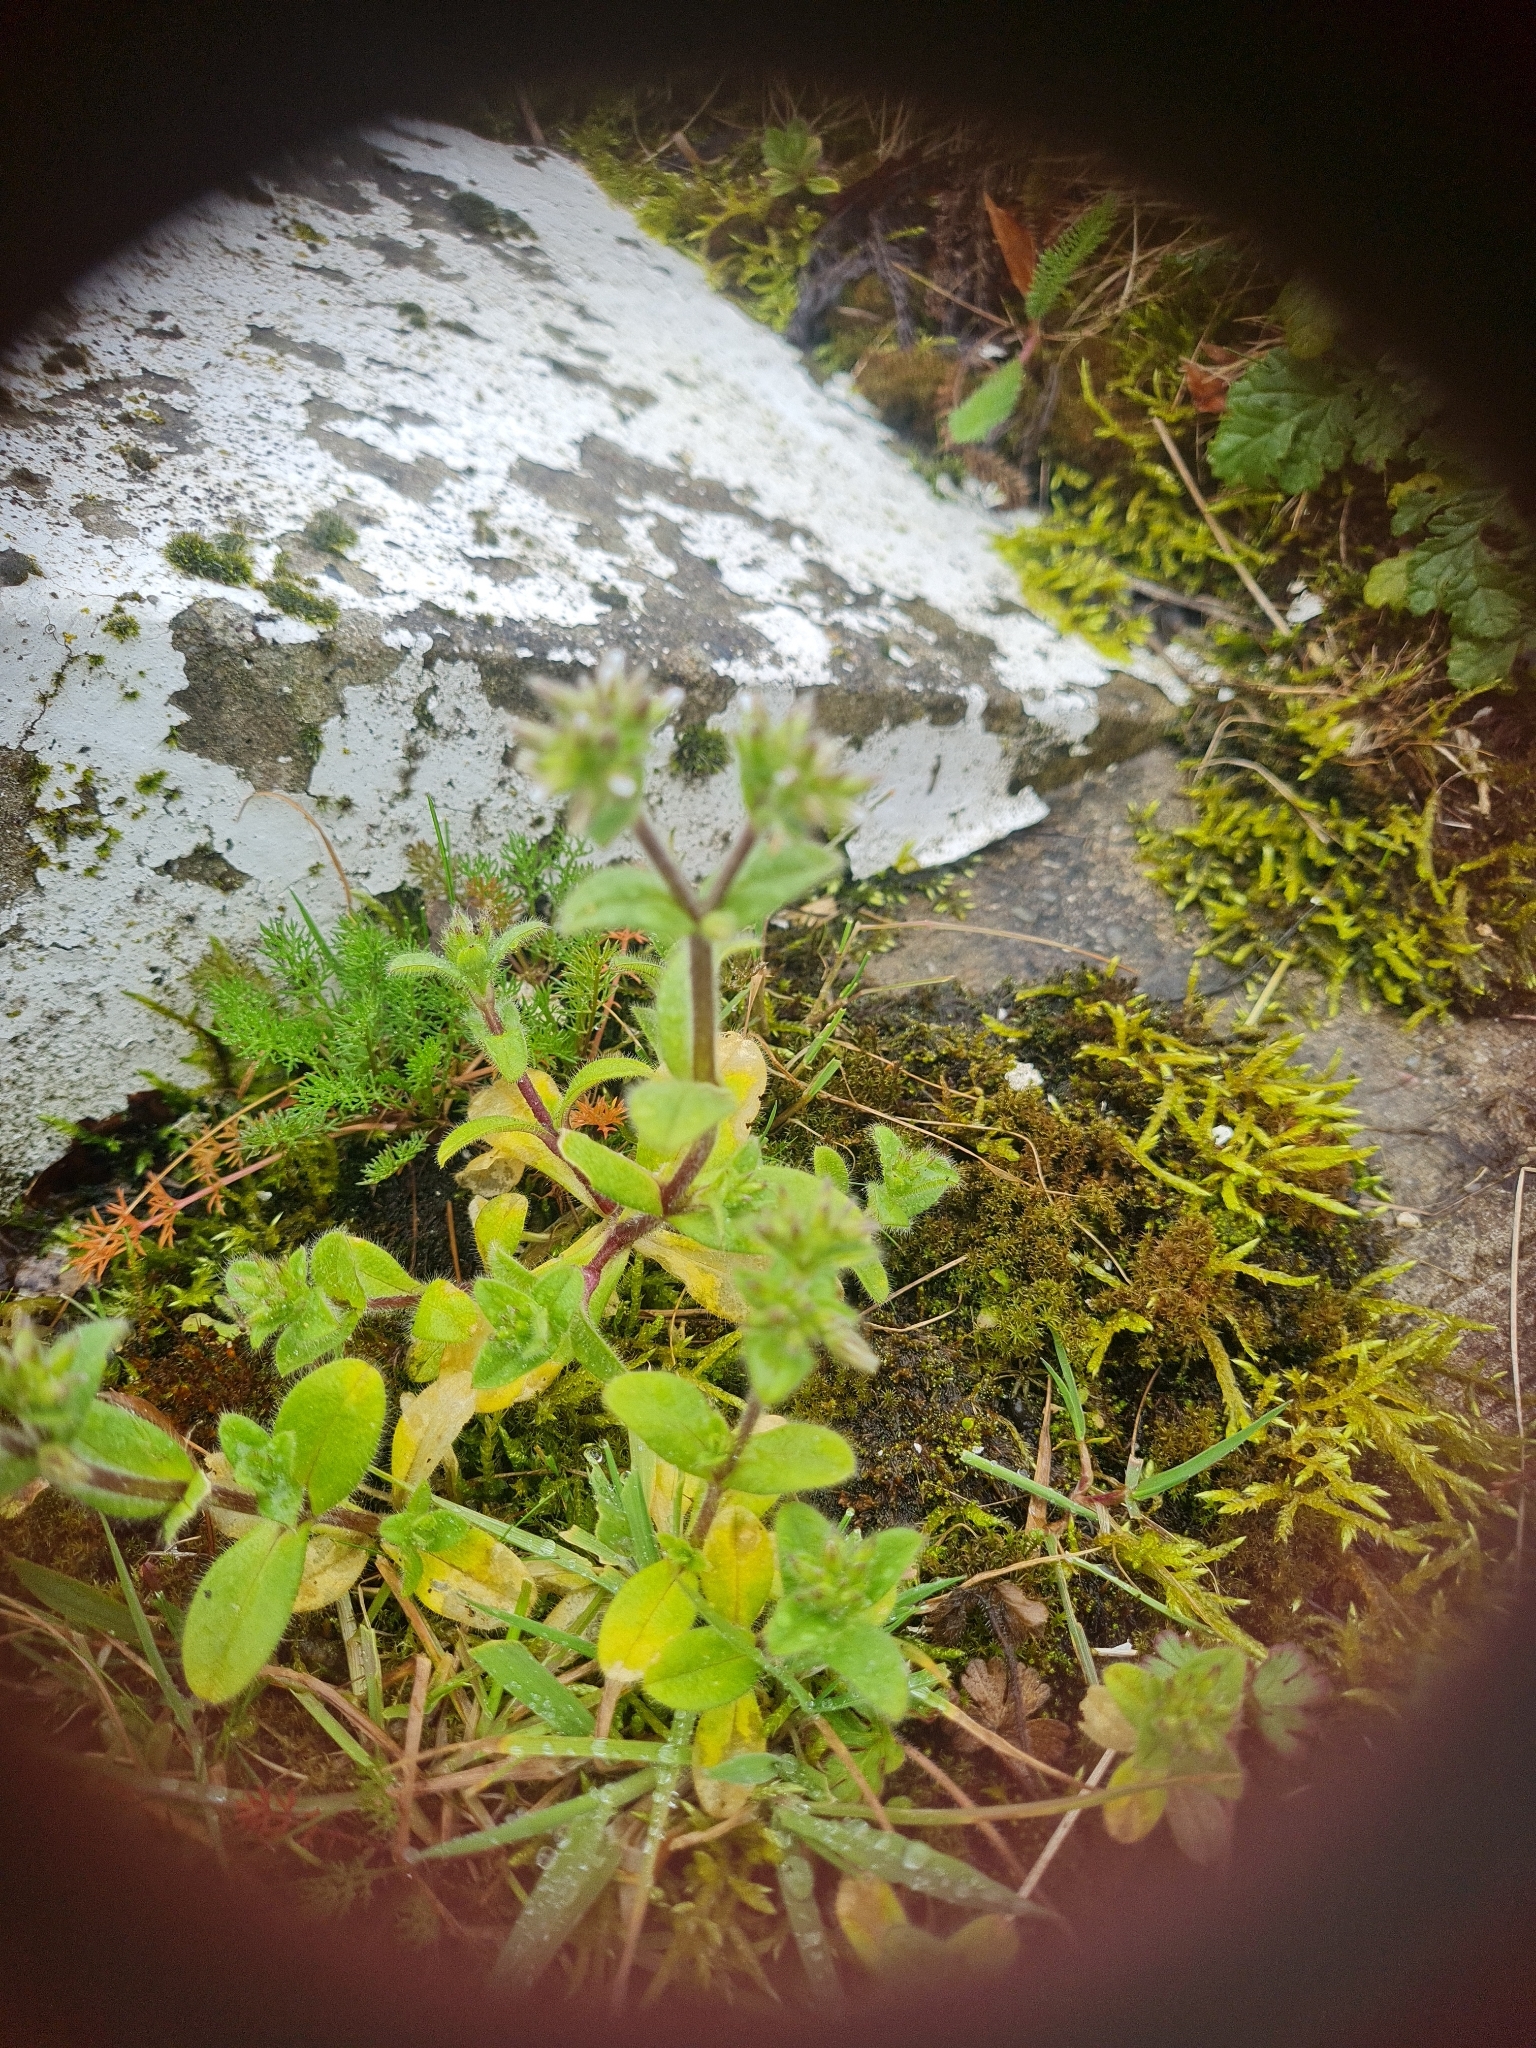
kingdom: Plantae
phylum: Tracheophyta
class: Magnoliopsida
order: Caryophyllales
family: Caryophyllaceae
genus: Cerastium
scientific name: Cerastium glomeratum
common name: Sticky chickweed
